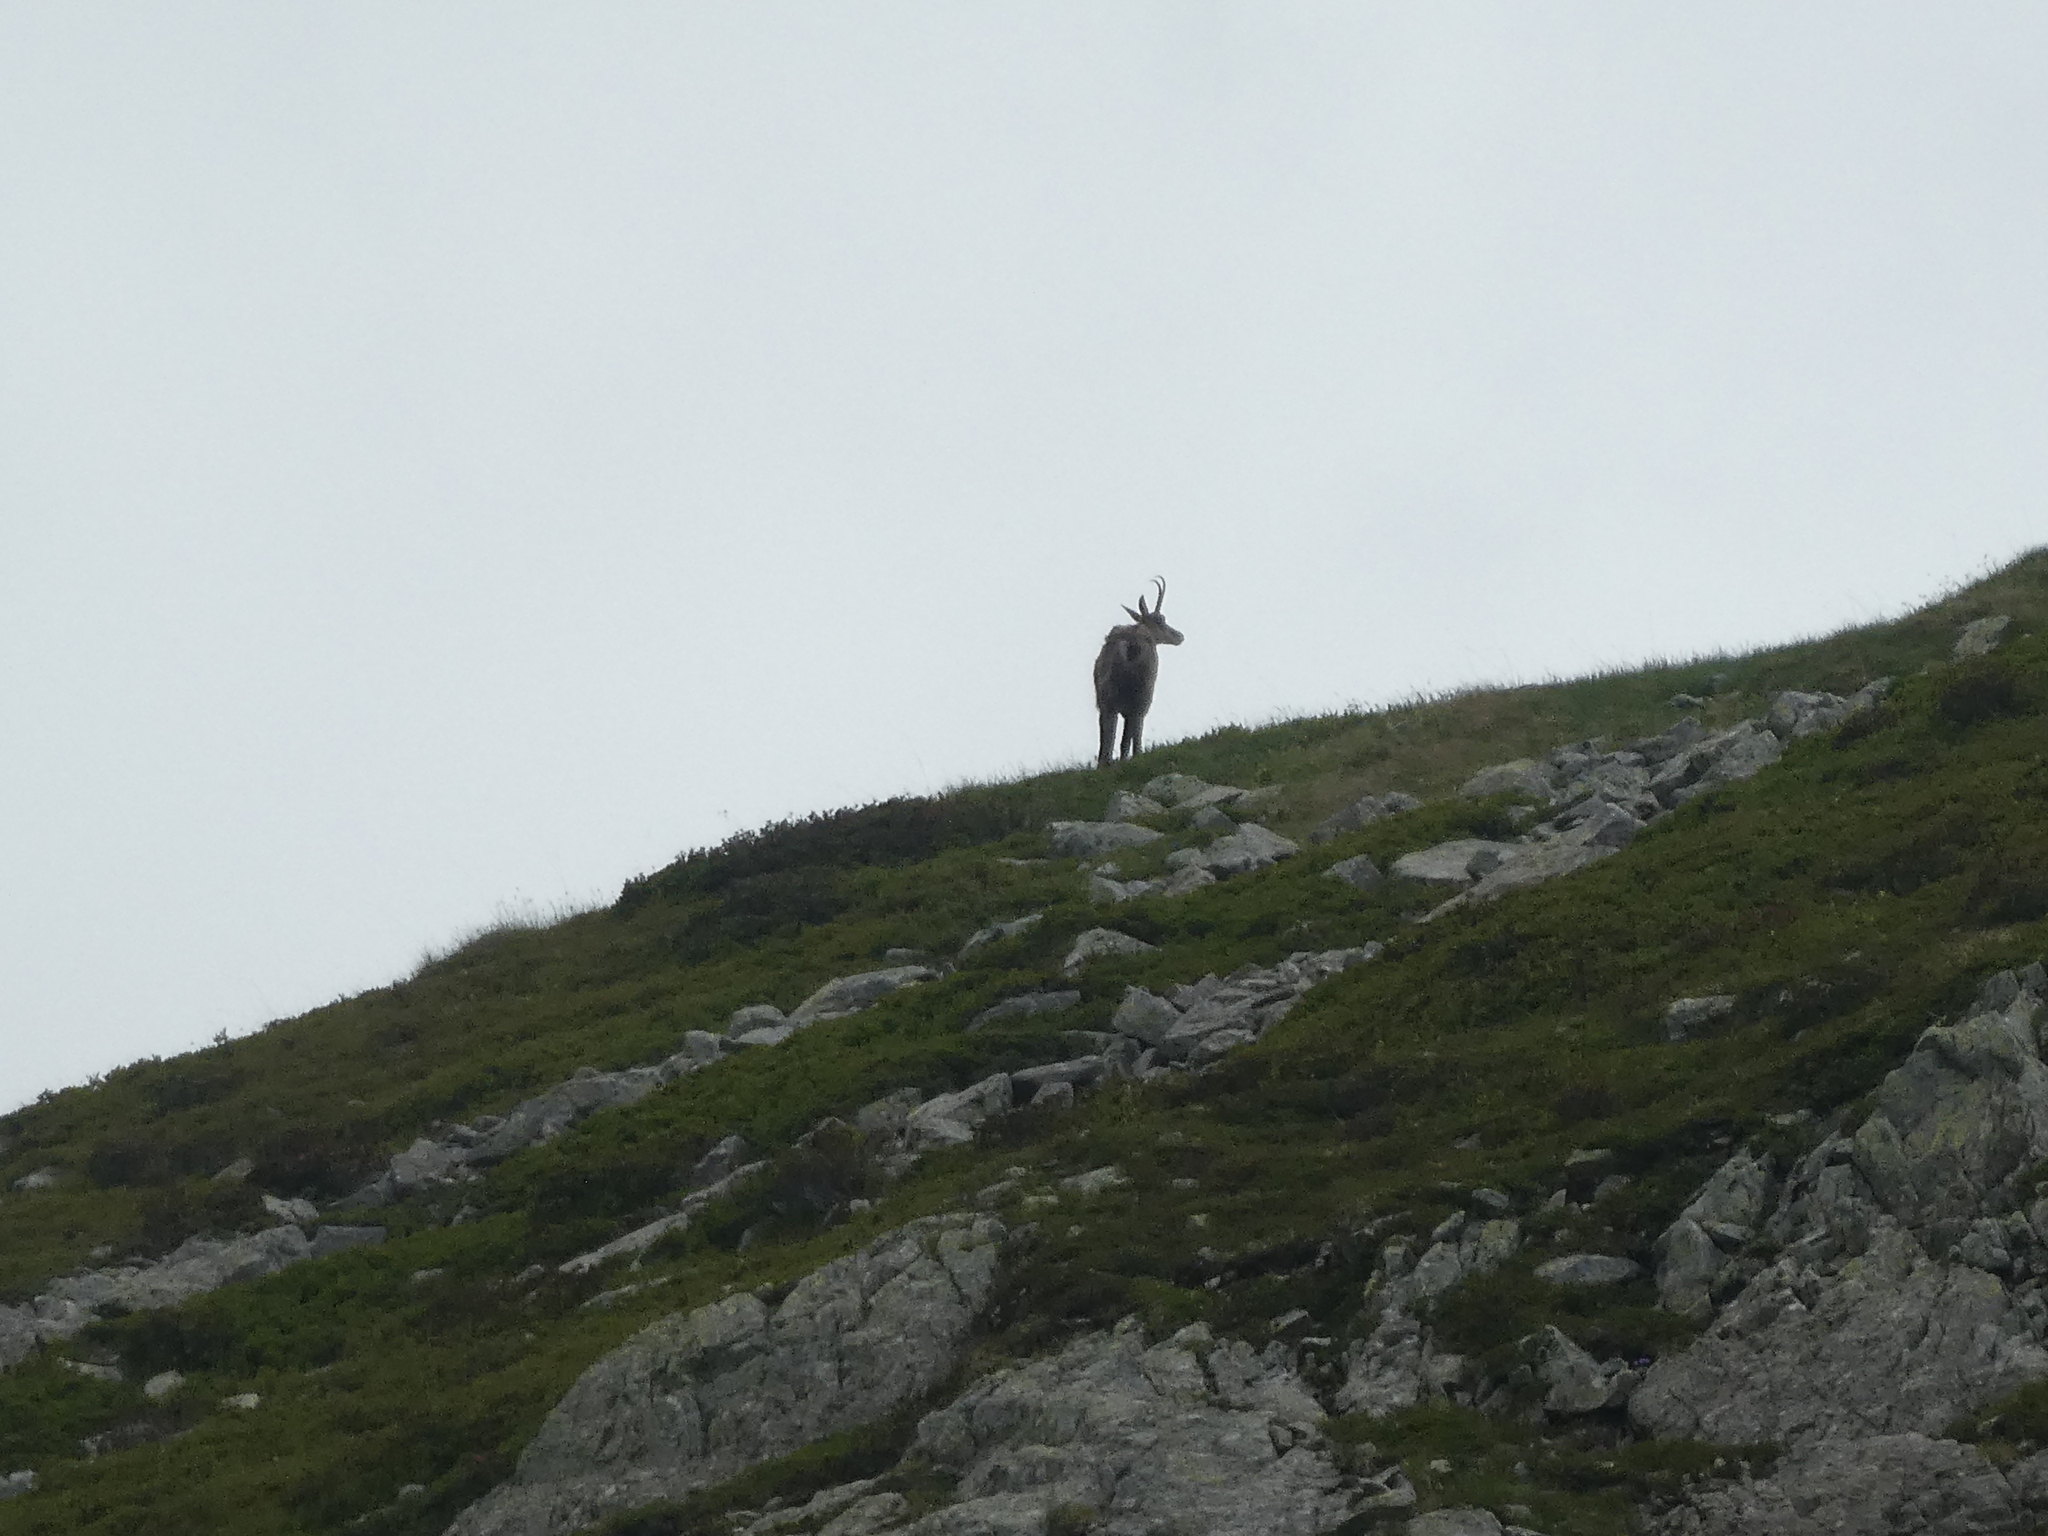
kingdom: Animalia
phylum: Chordata
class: Mammalia
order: Artiodactyla
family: Bovidae
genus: Rupicapra
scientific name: Rupicapra rupicapra
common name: Chamois
